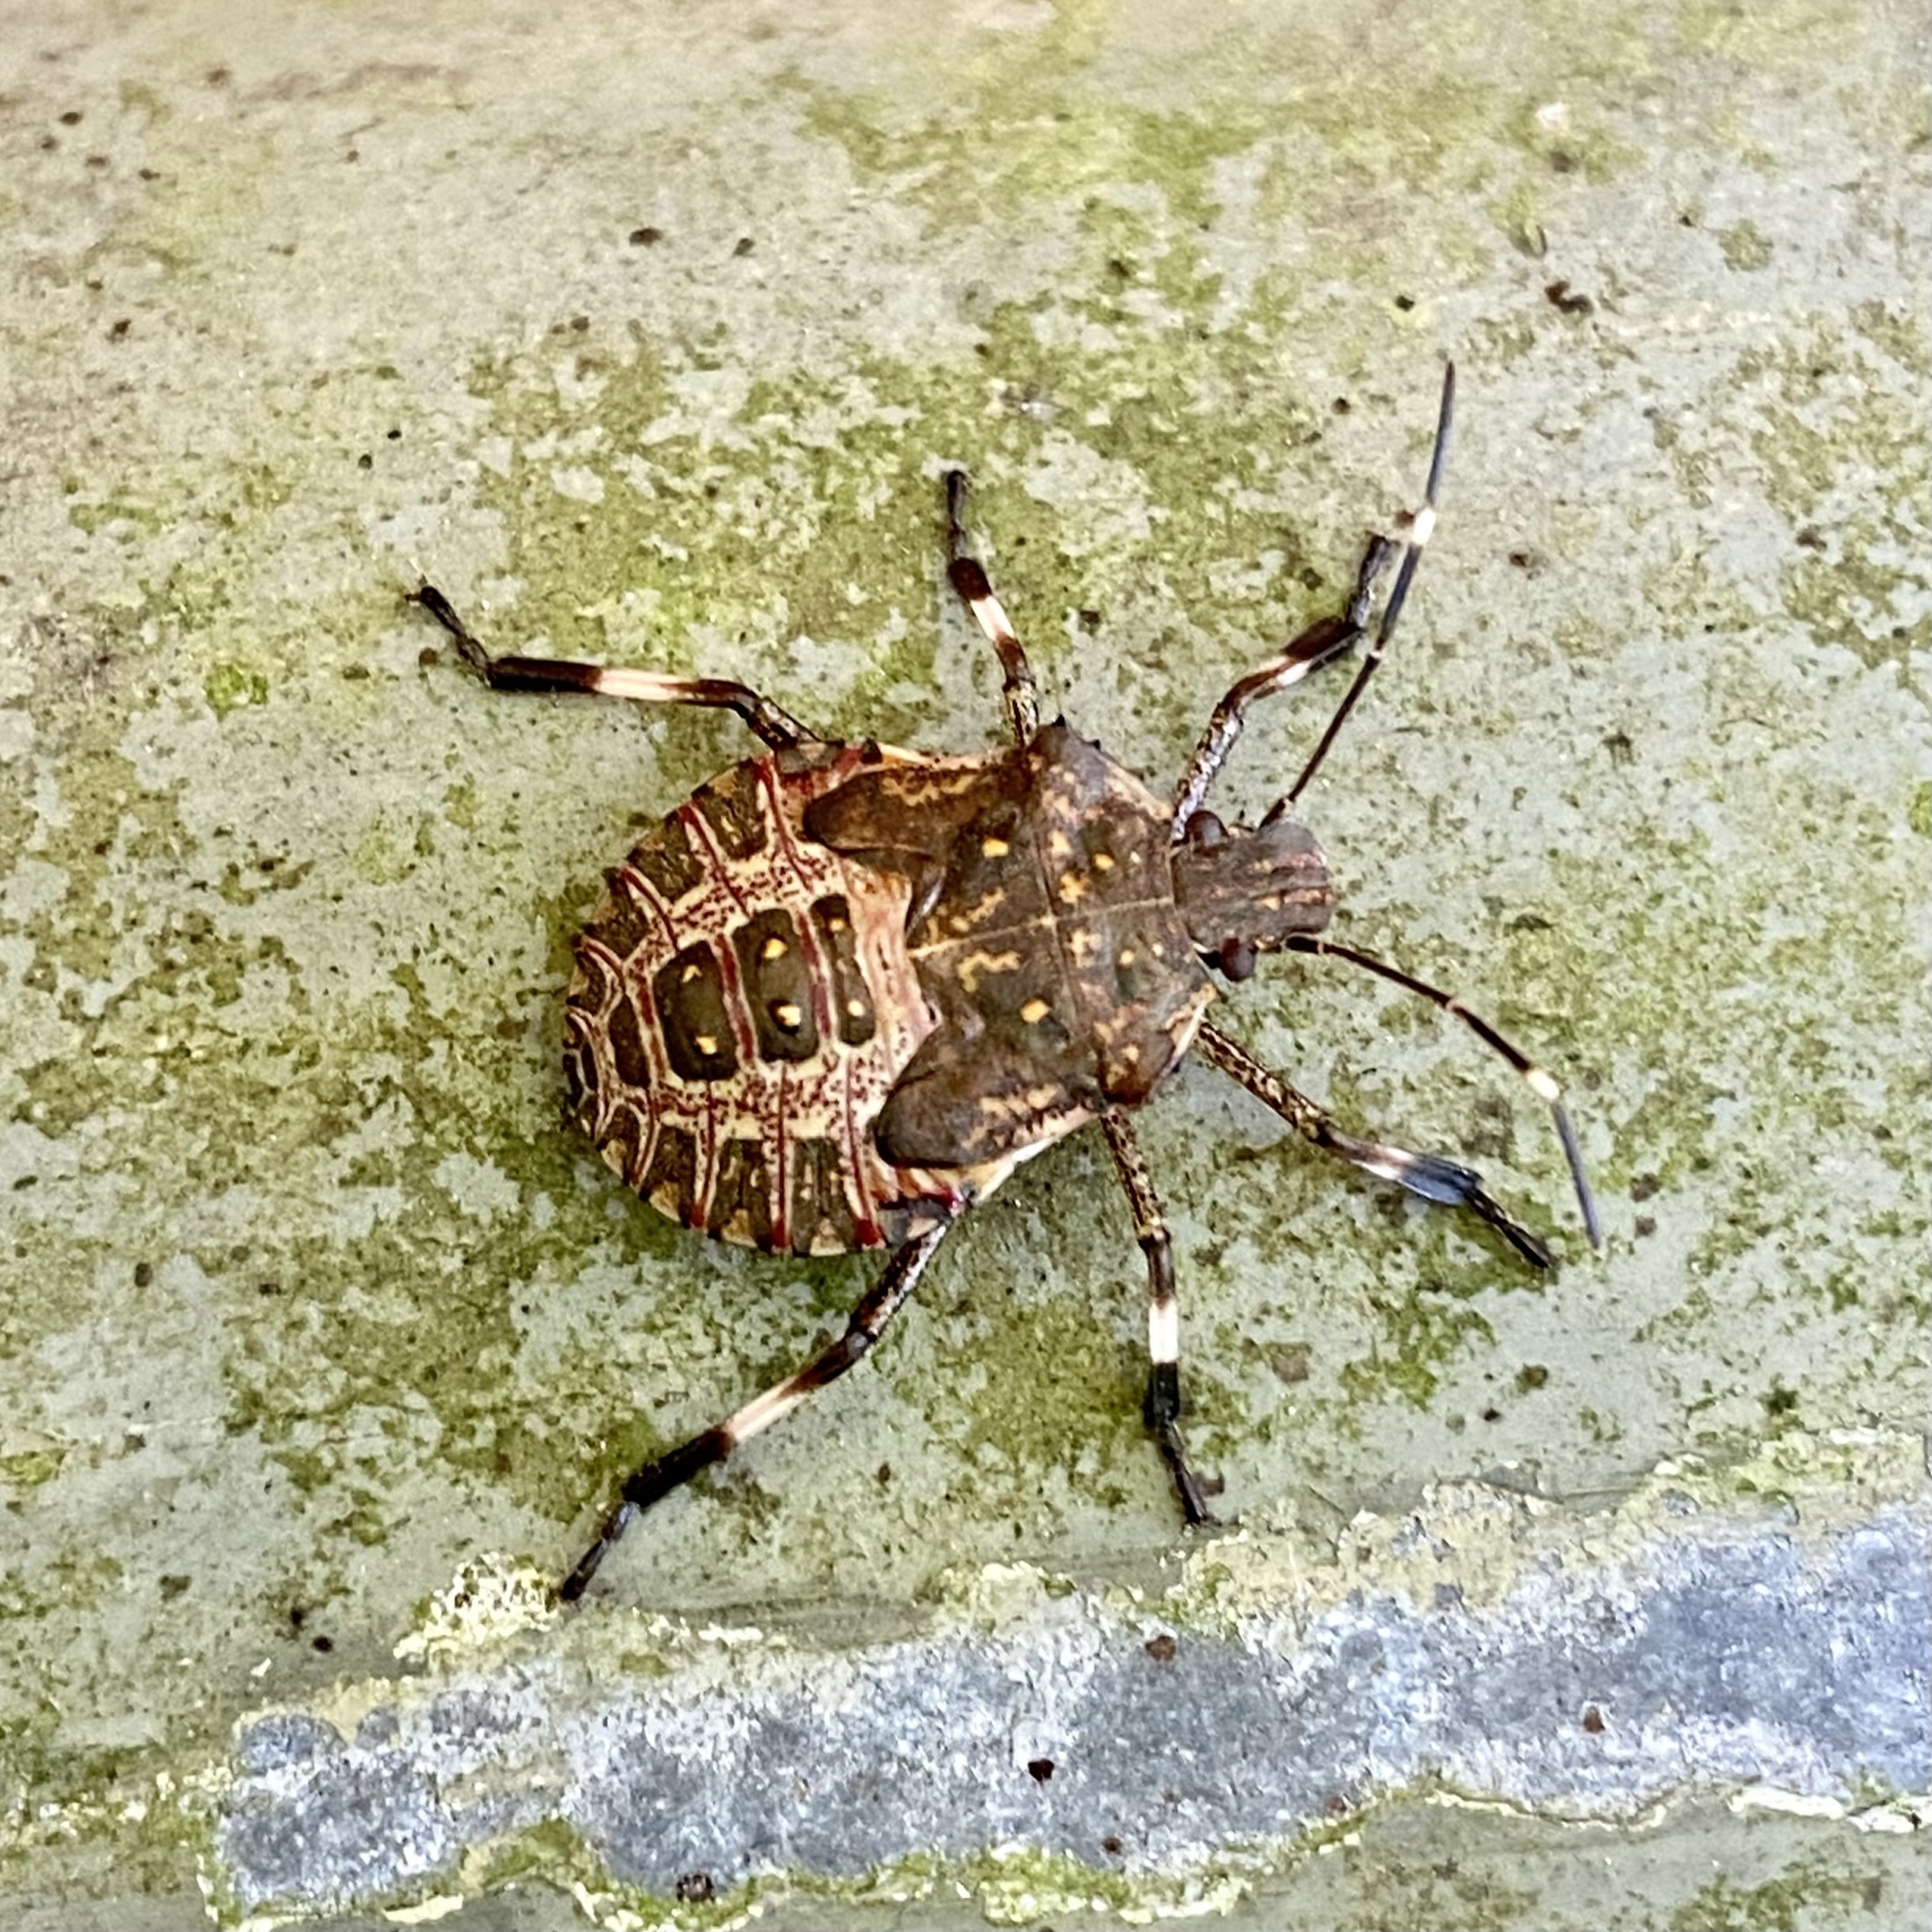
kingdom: Animalia
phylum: Arthropoda
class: Insecta
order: Hemiptera
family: Pentatomidae
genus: Halyomorpha
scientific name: Halyomorpha halys
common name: Brown marmorated stink bug
